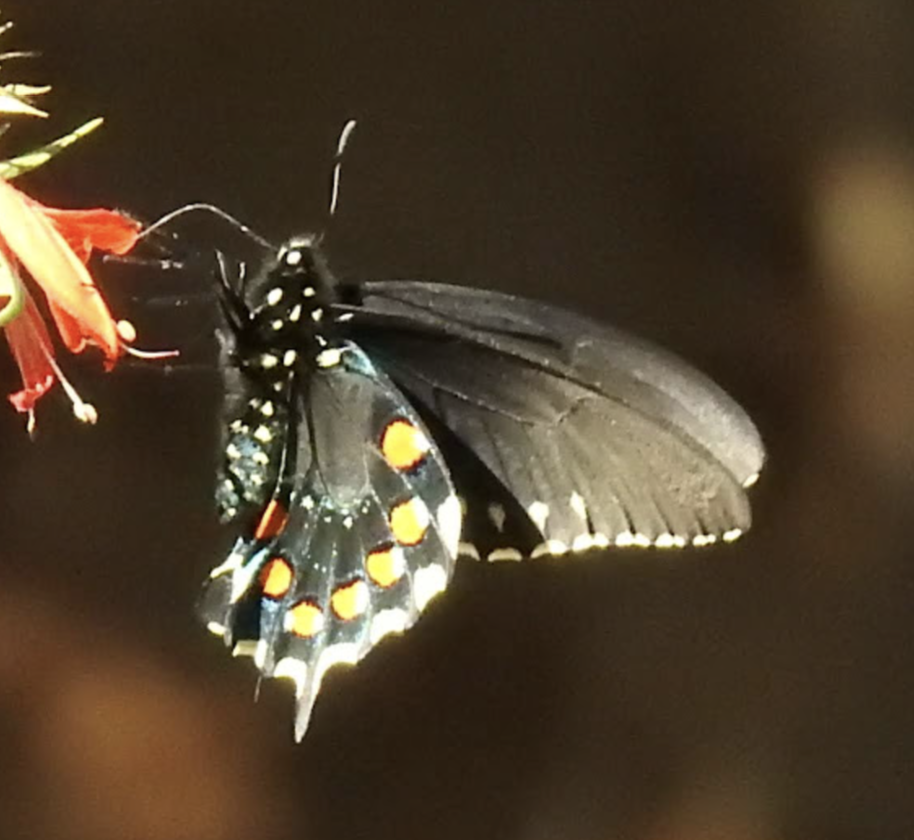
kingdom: Animalia
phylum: Arthropoda
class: Insecta
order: Lepidoptera
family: Papilionidae
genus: Battus
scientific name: Battus philenor
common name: Pipevine swallowtail
